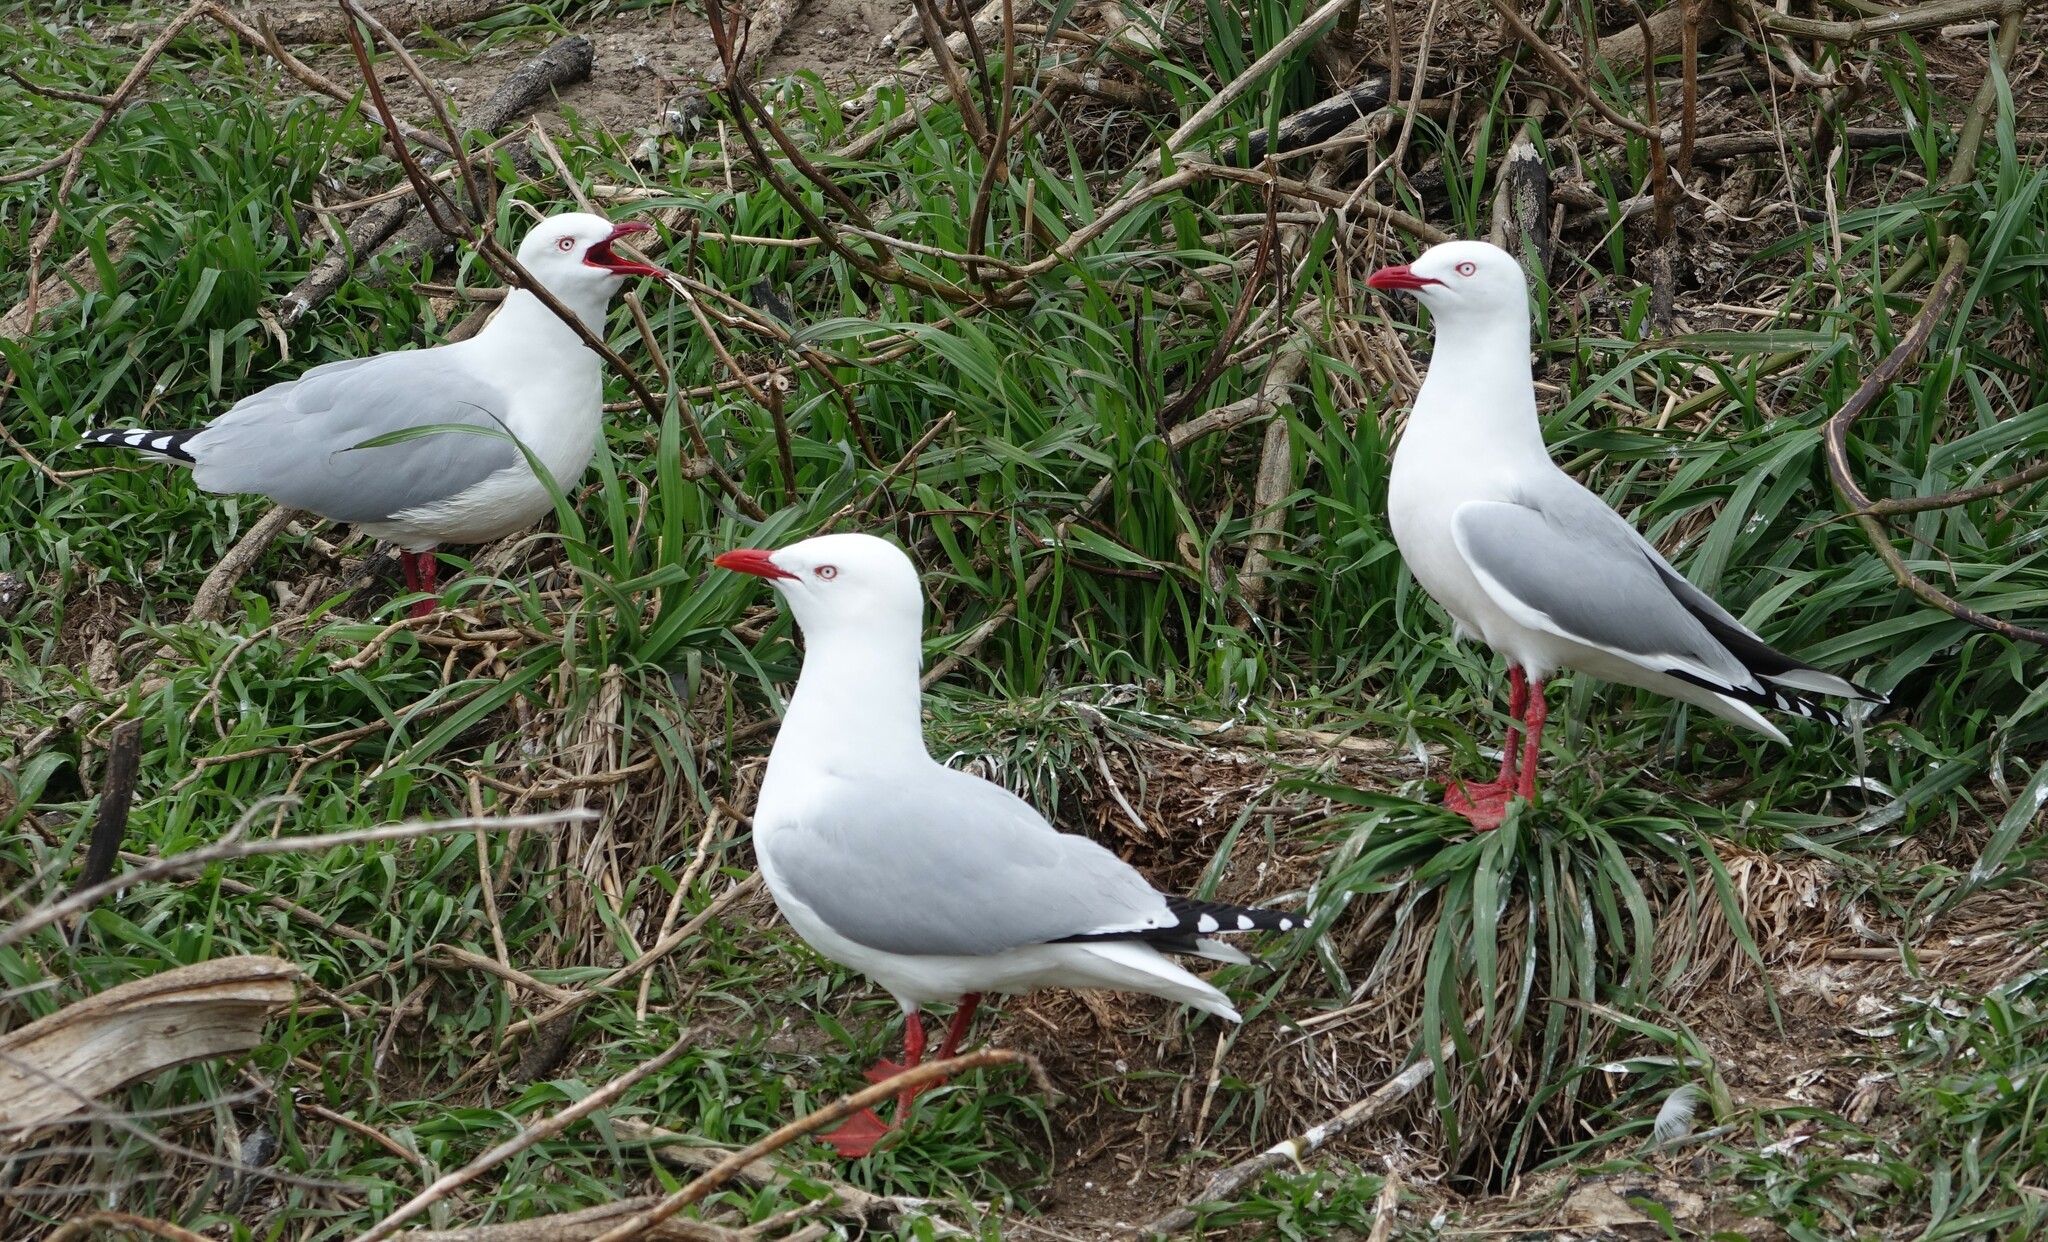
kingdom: Animalia
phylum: Chordata
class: Aves
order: Charadriiformes
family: Laridae
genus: Chroicocephalus
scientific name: Chroicocephalus novaehollandiae
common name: Silver gull
